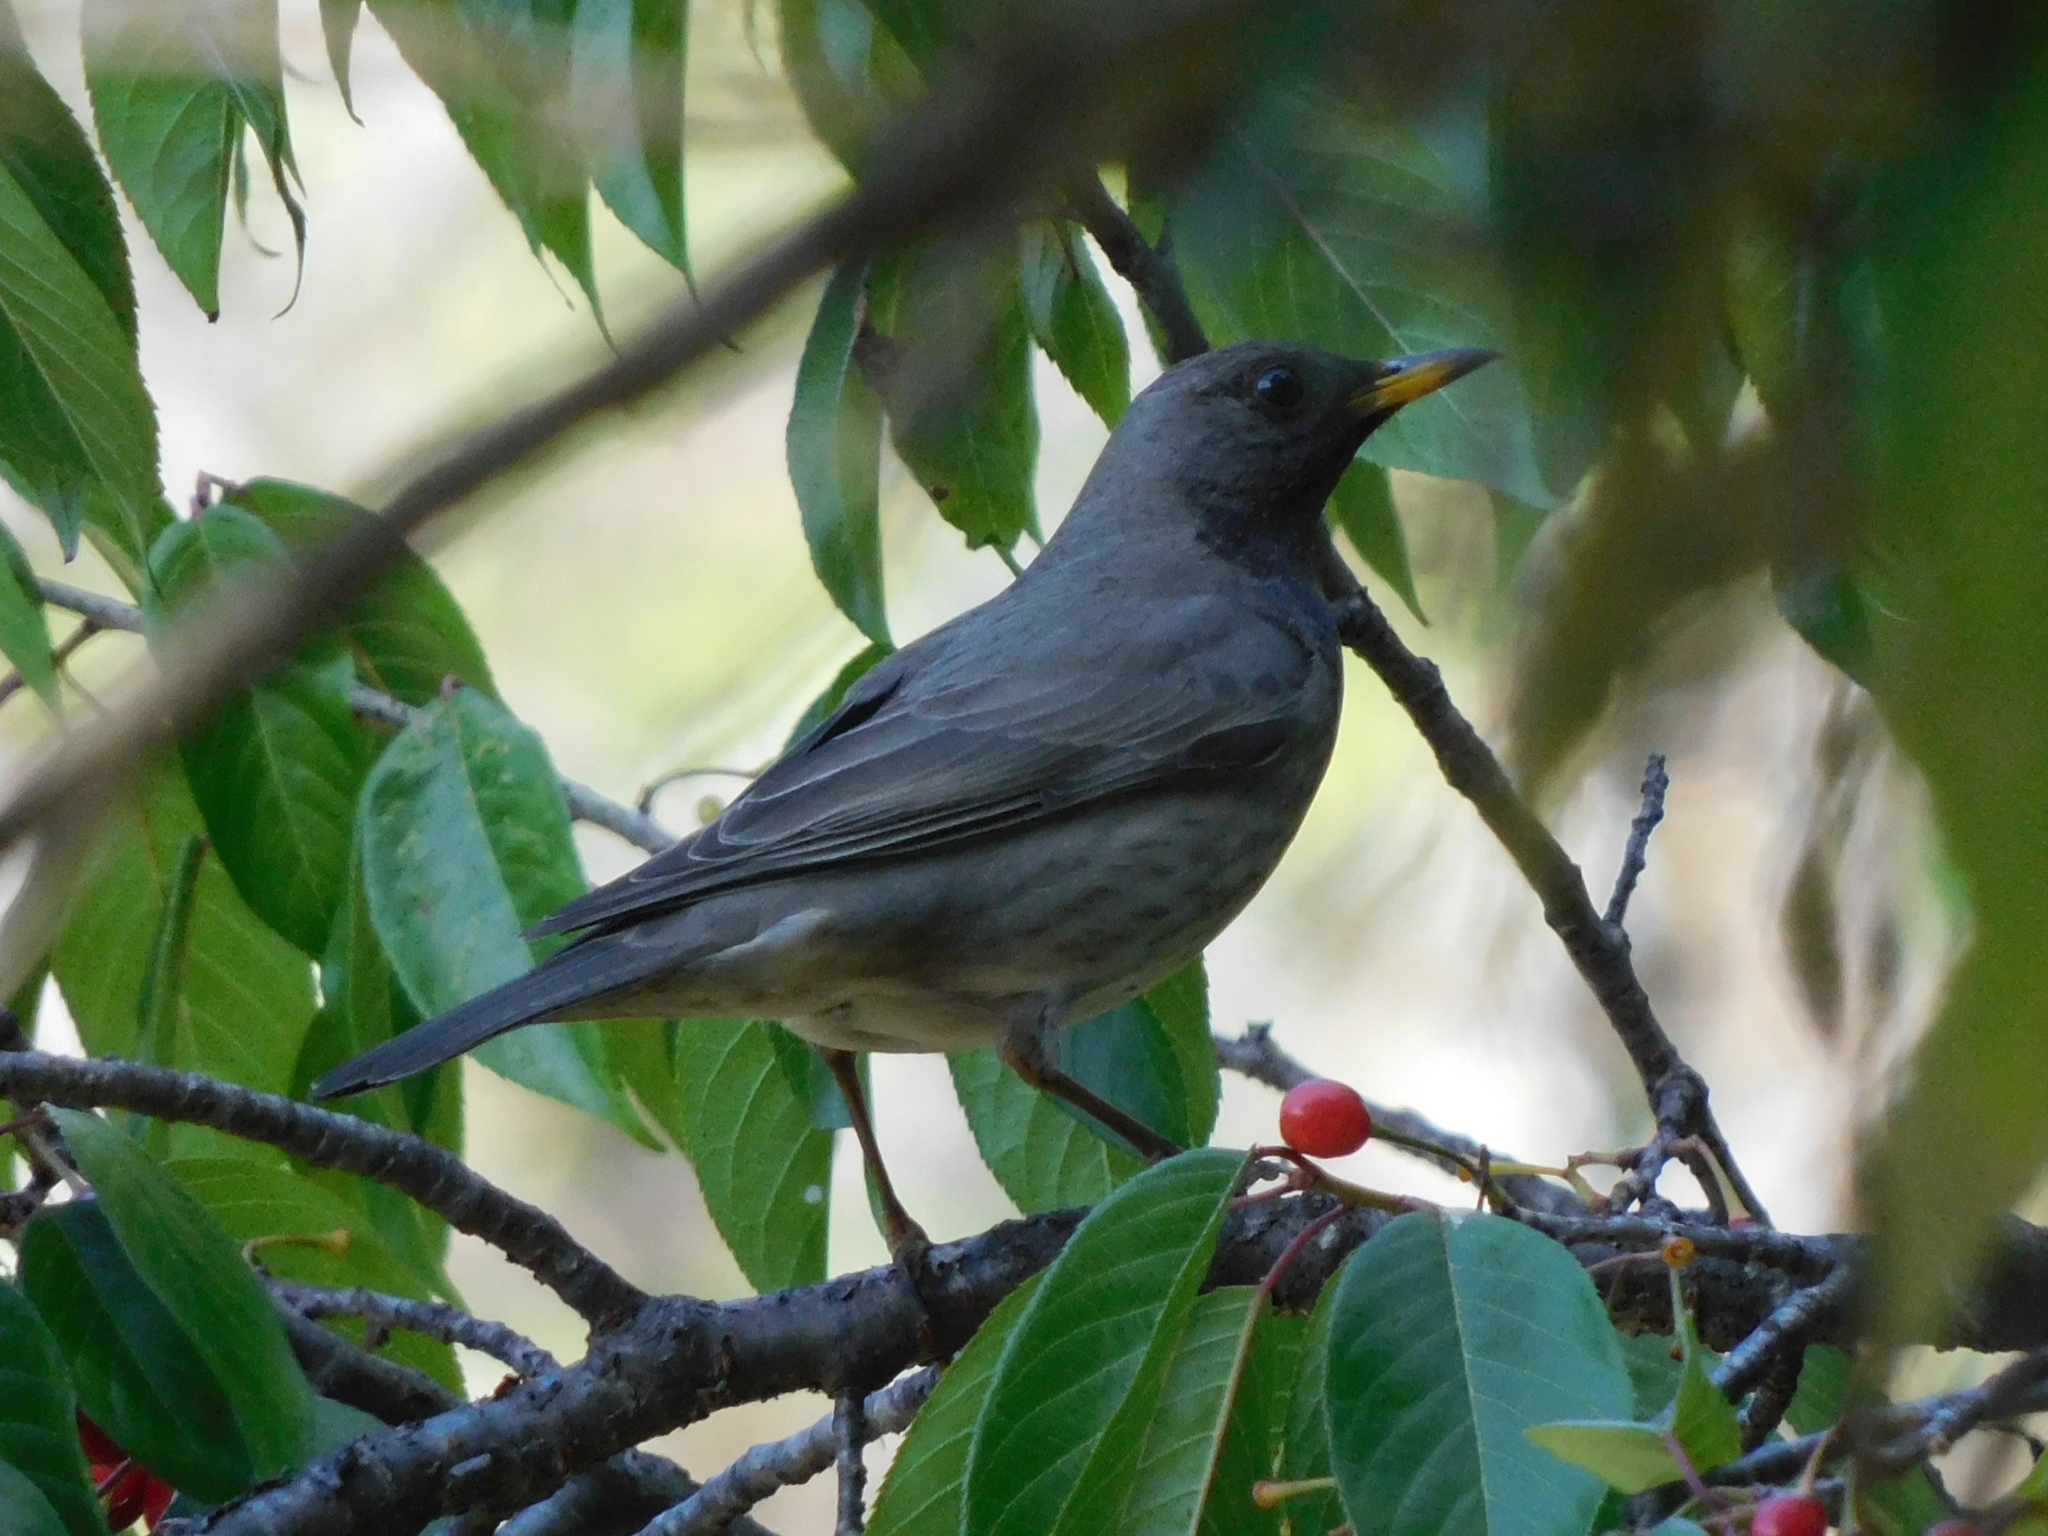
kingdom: Animalia
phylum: Chordata
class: Aves
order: Passeriformes
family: Turdidae
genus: Turdus
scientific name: Turdus atrogularis
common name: Black-throated thrush
